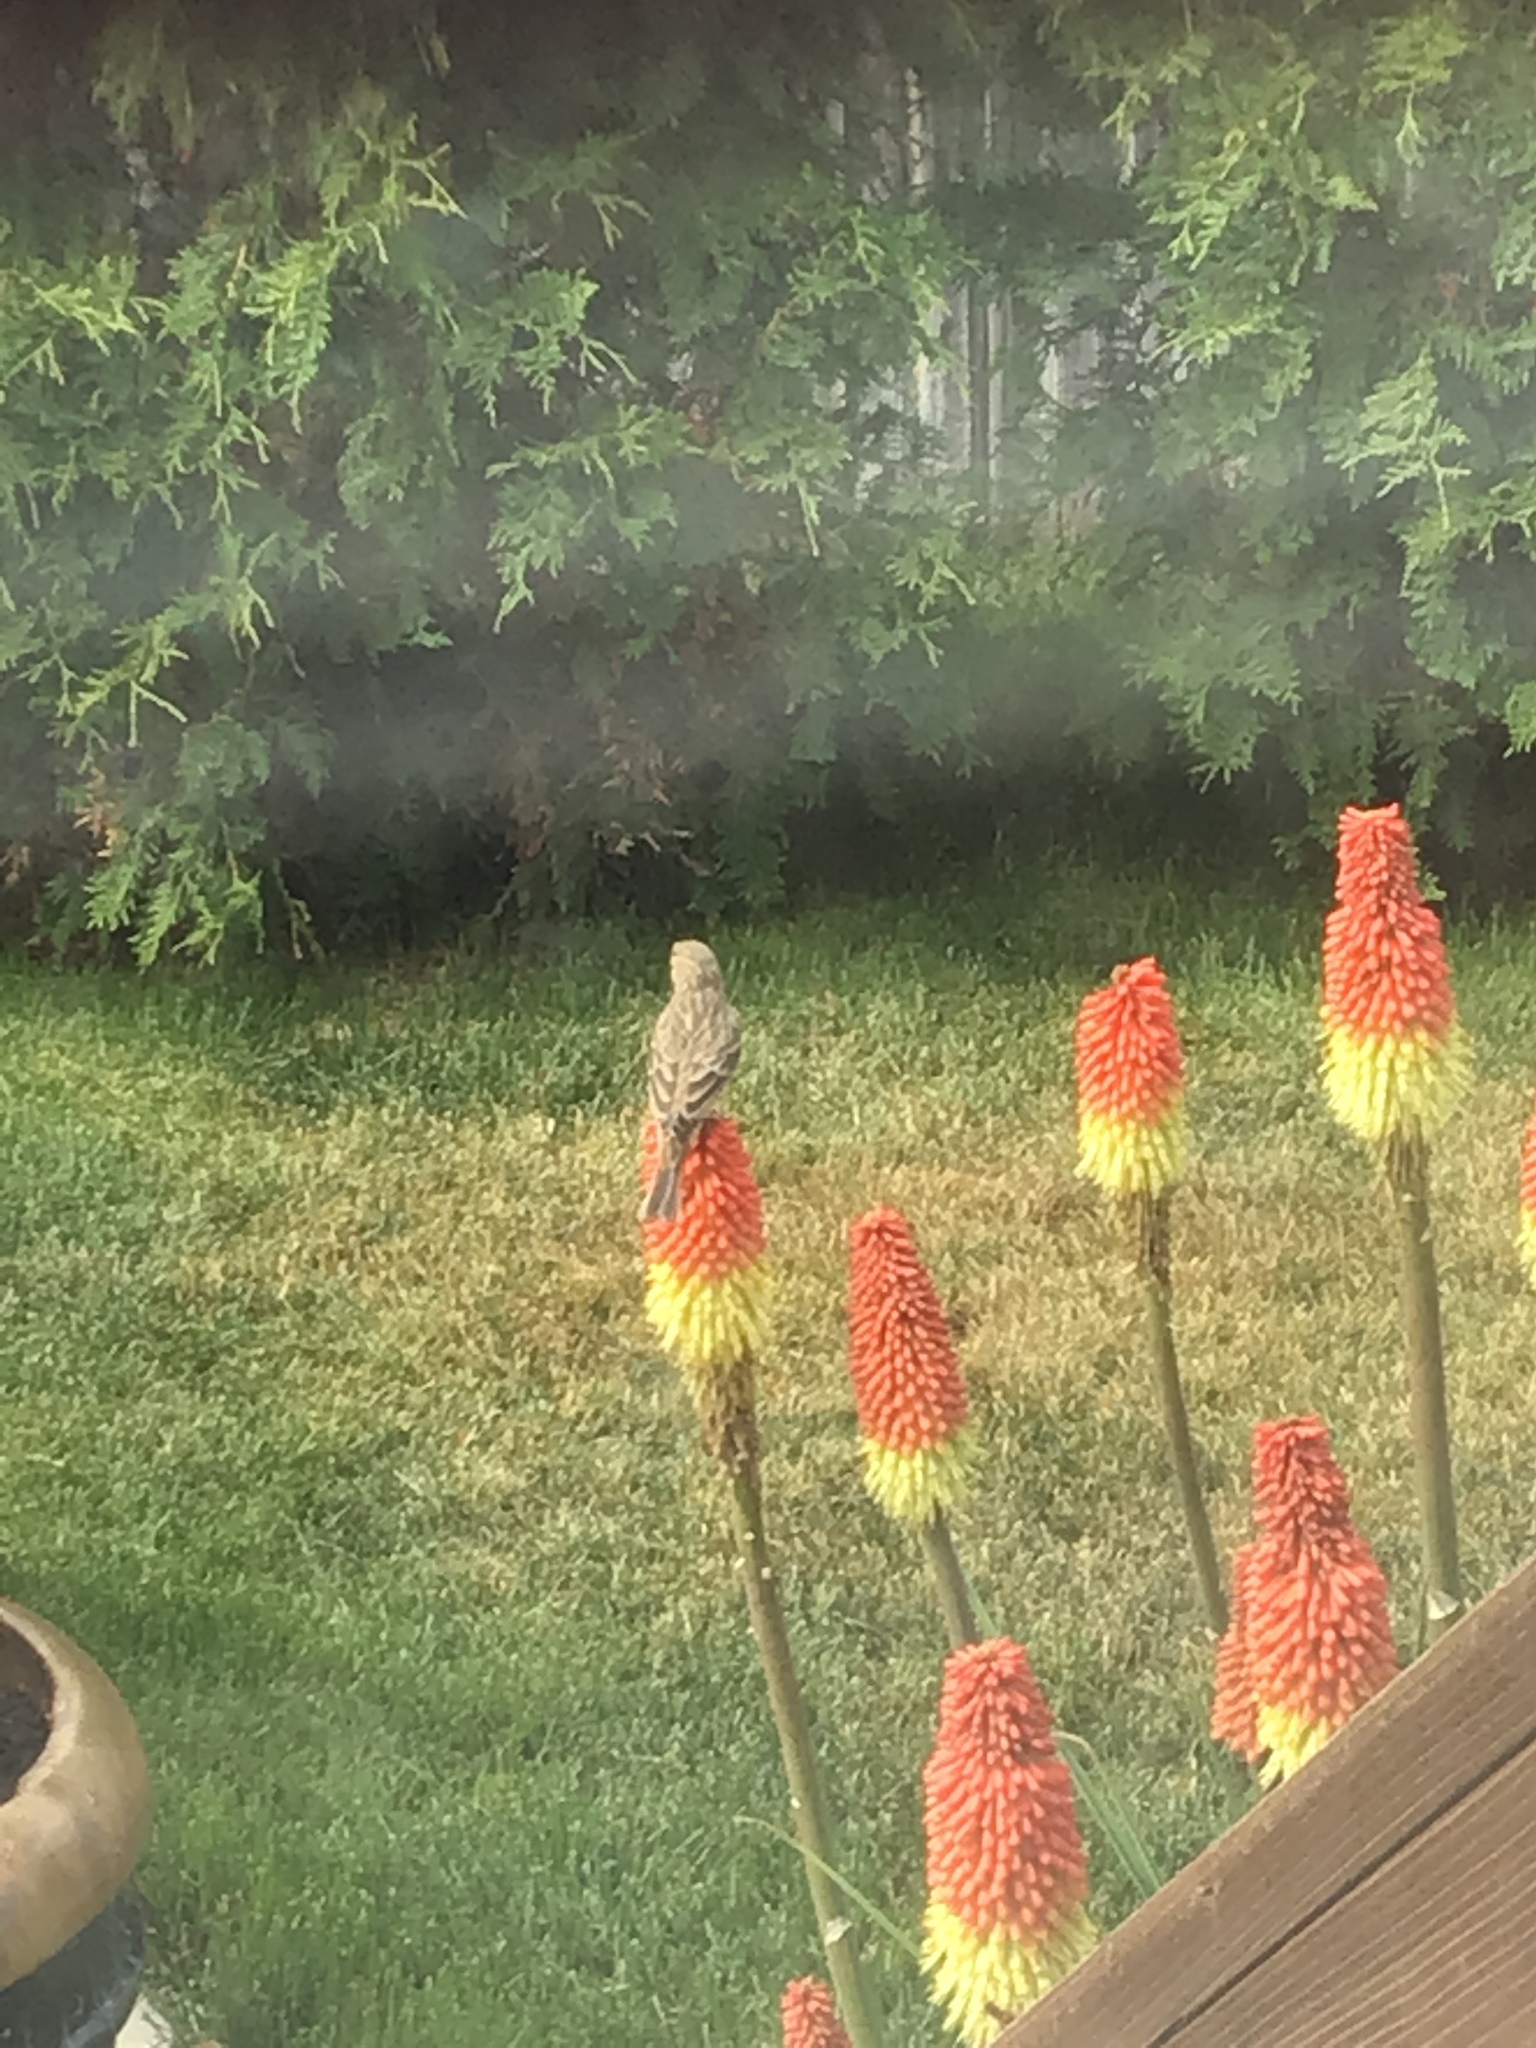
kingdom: Animalia
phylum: Chordata
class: Aves
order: Passeriformes
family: Fringillidae
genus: Haemorhous
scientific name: Haemorhous mexicanus
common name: House finch
